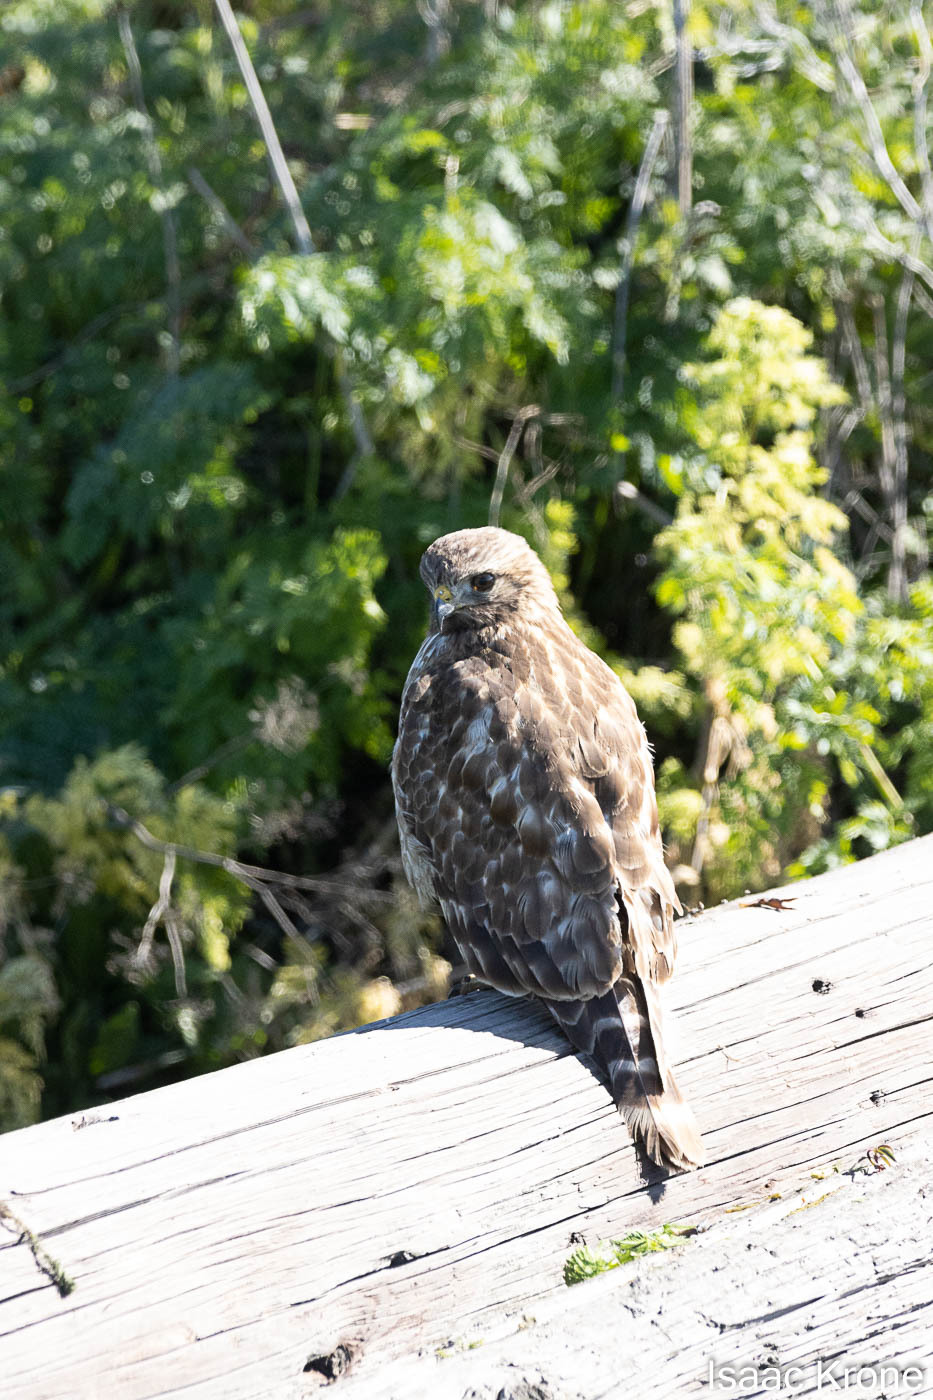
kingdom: Animalia
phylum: Chordata
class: Aves
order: Accipitriformes
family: Accipitridae
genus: Buteo
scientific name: Buteo lineatus
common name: Red-shouldered hawk
